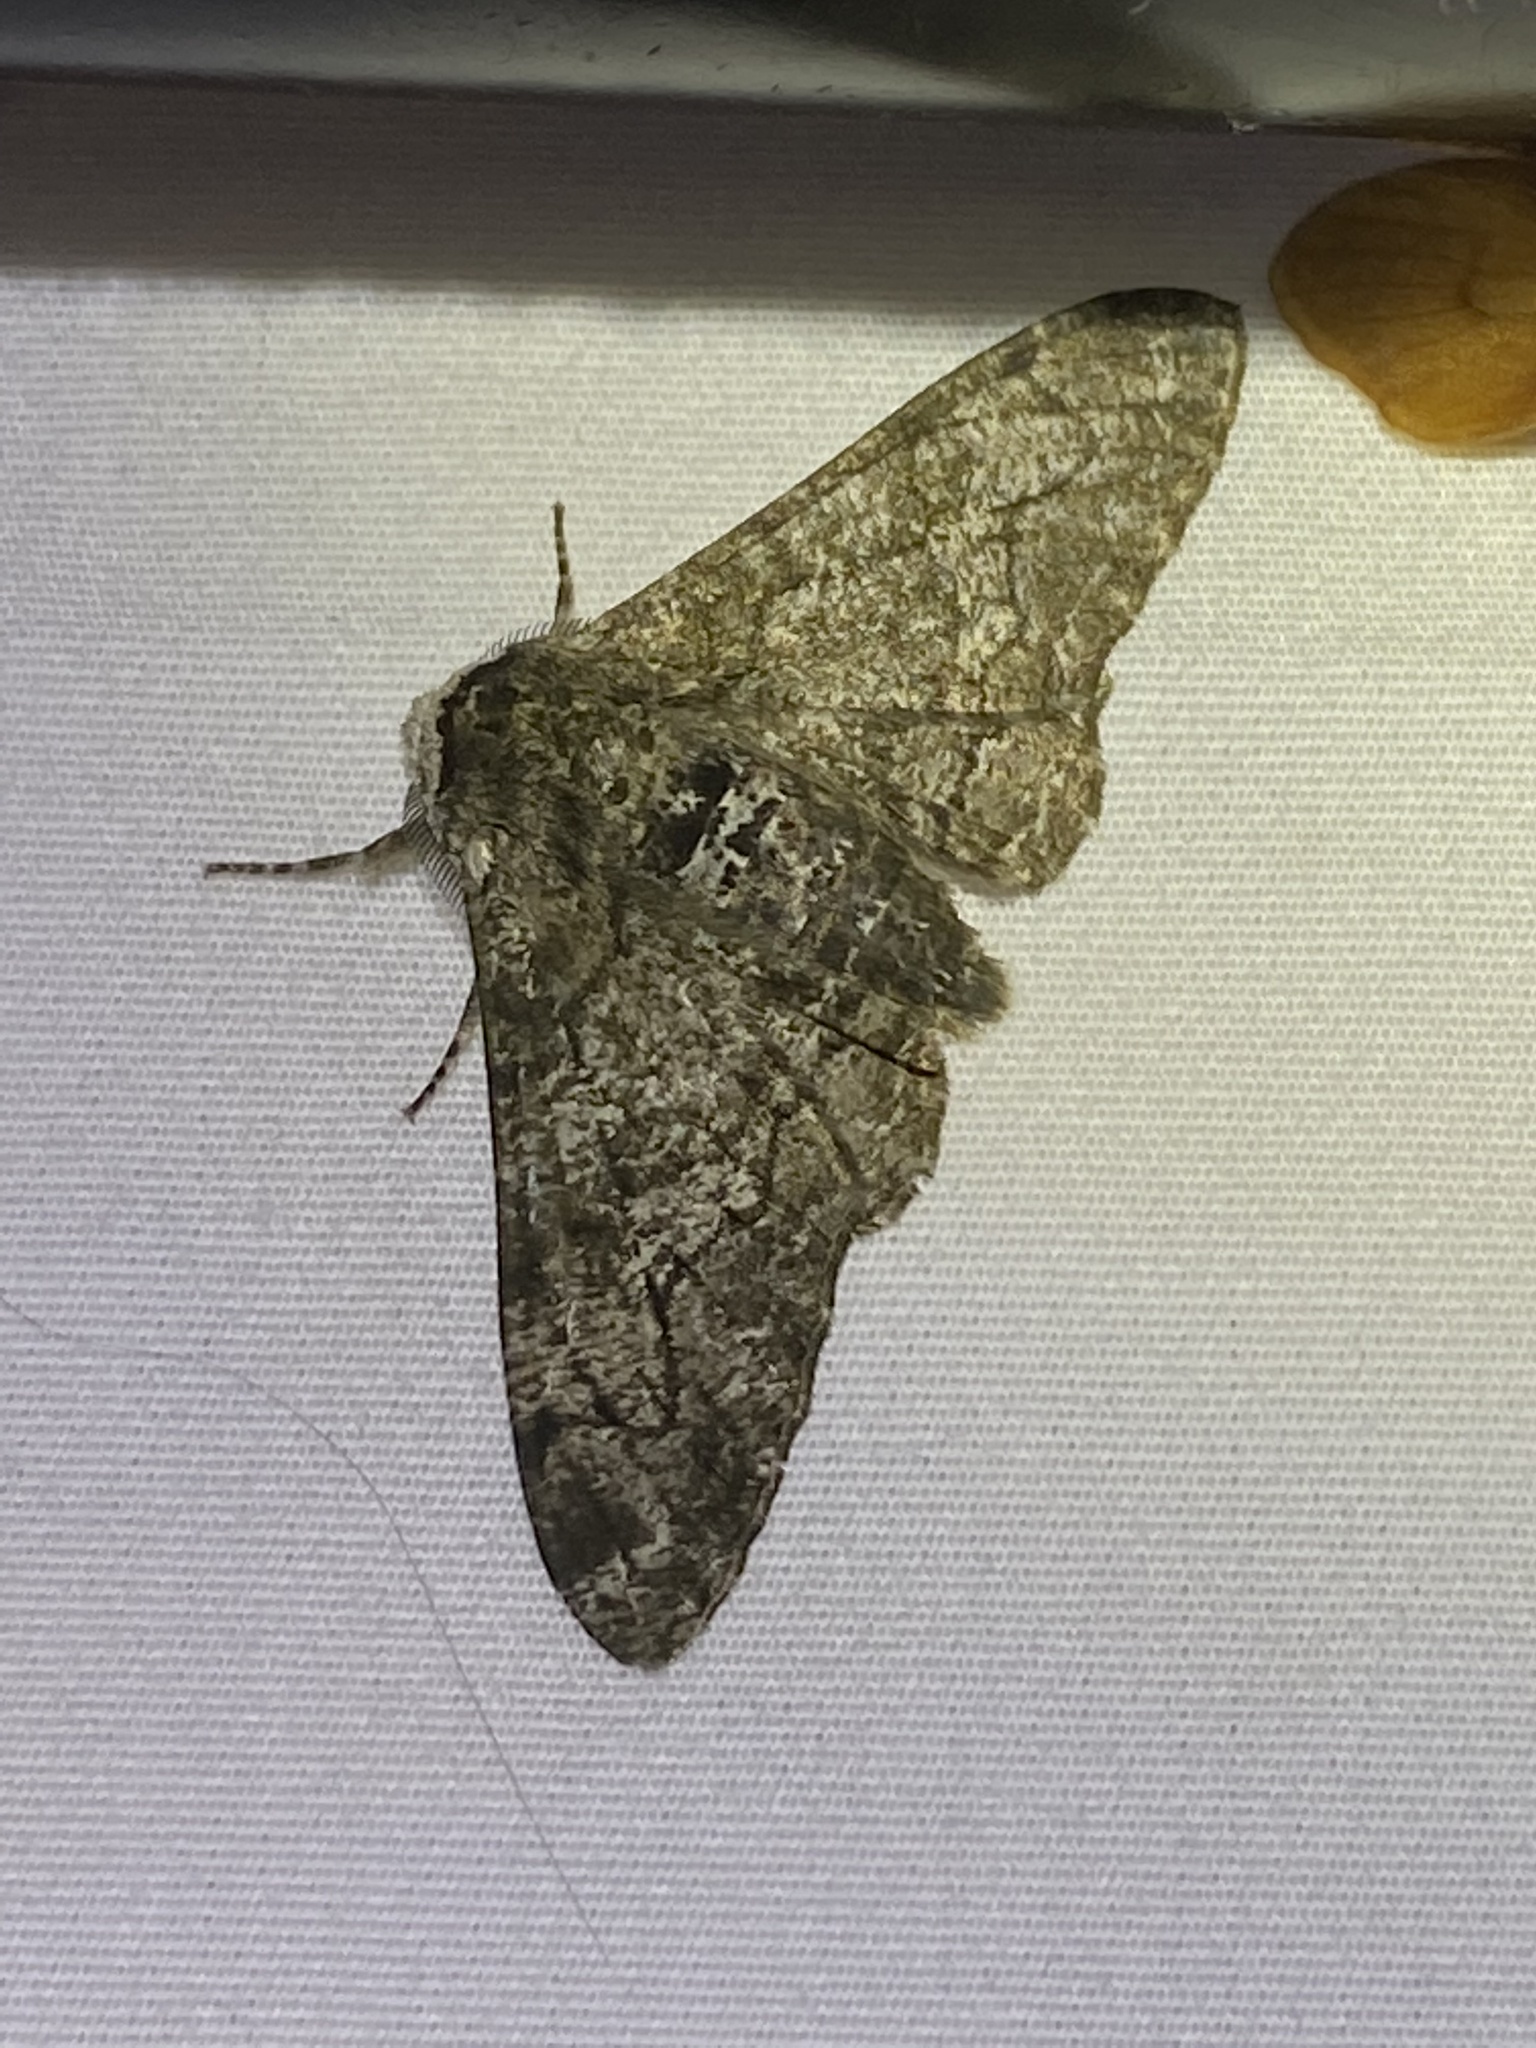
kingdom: Animalia
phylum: Arthropoda
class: Insecta
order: Lepidoptera
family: Geometridae
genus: Biston
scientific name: Biston betularia
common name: Peppered moth
